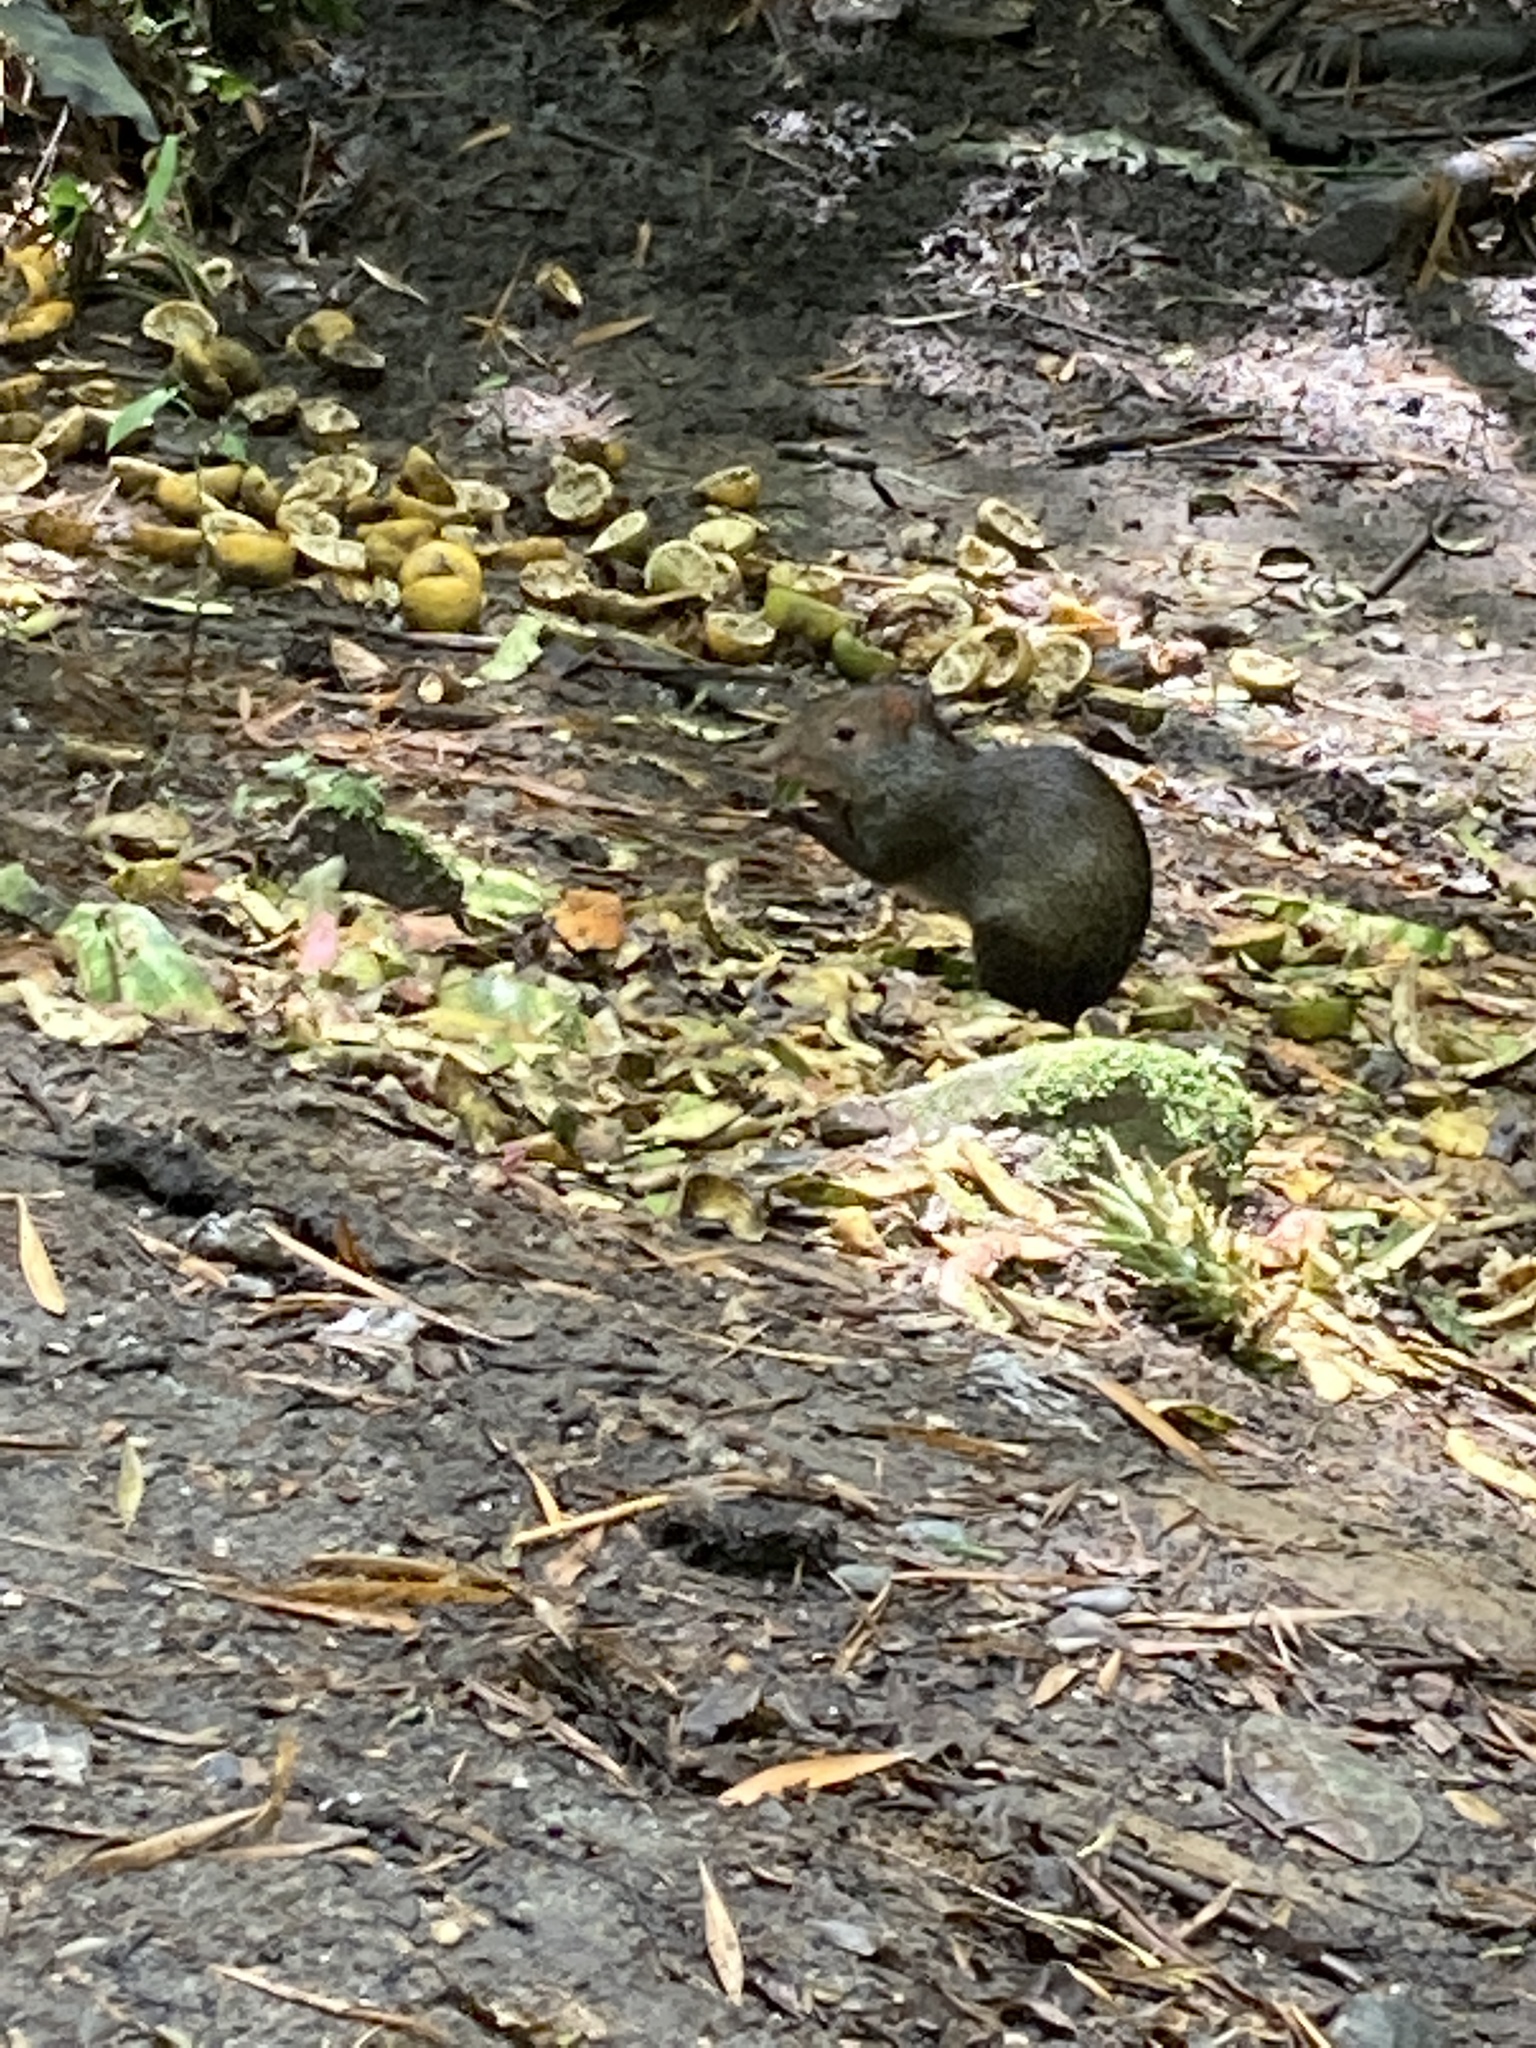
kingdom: Animalia
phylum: Chordata
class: Mammalia
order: Rodentia
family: Dasyproctidae
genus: Dasyprocta
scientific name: Dasyprocta punctata
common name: Central american agouti
